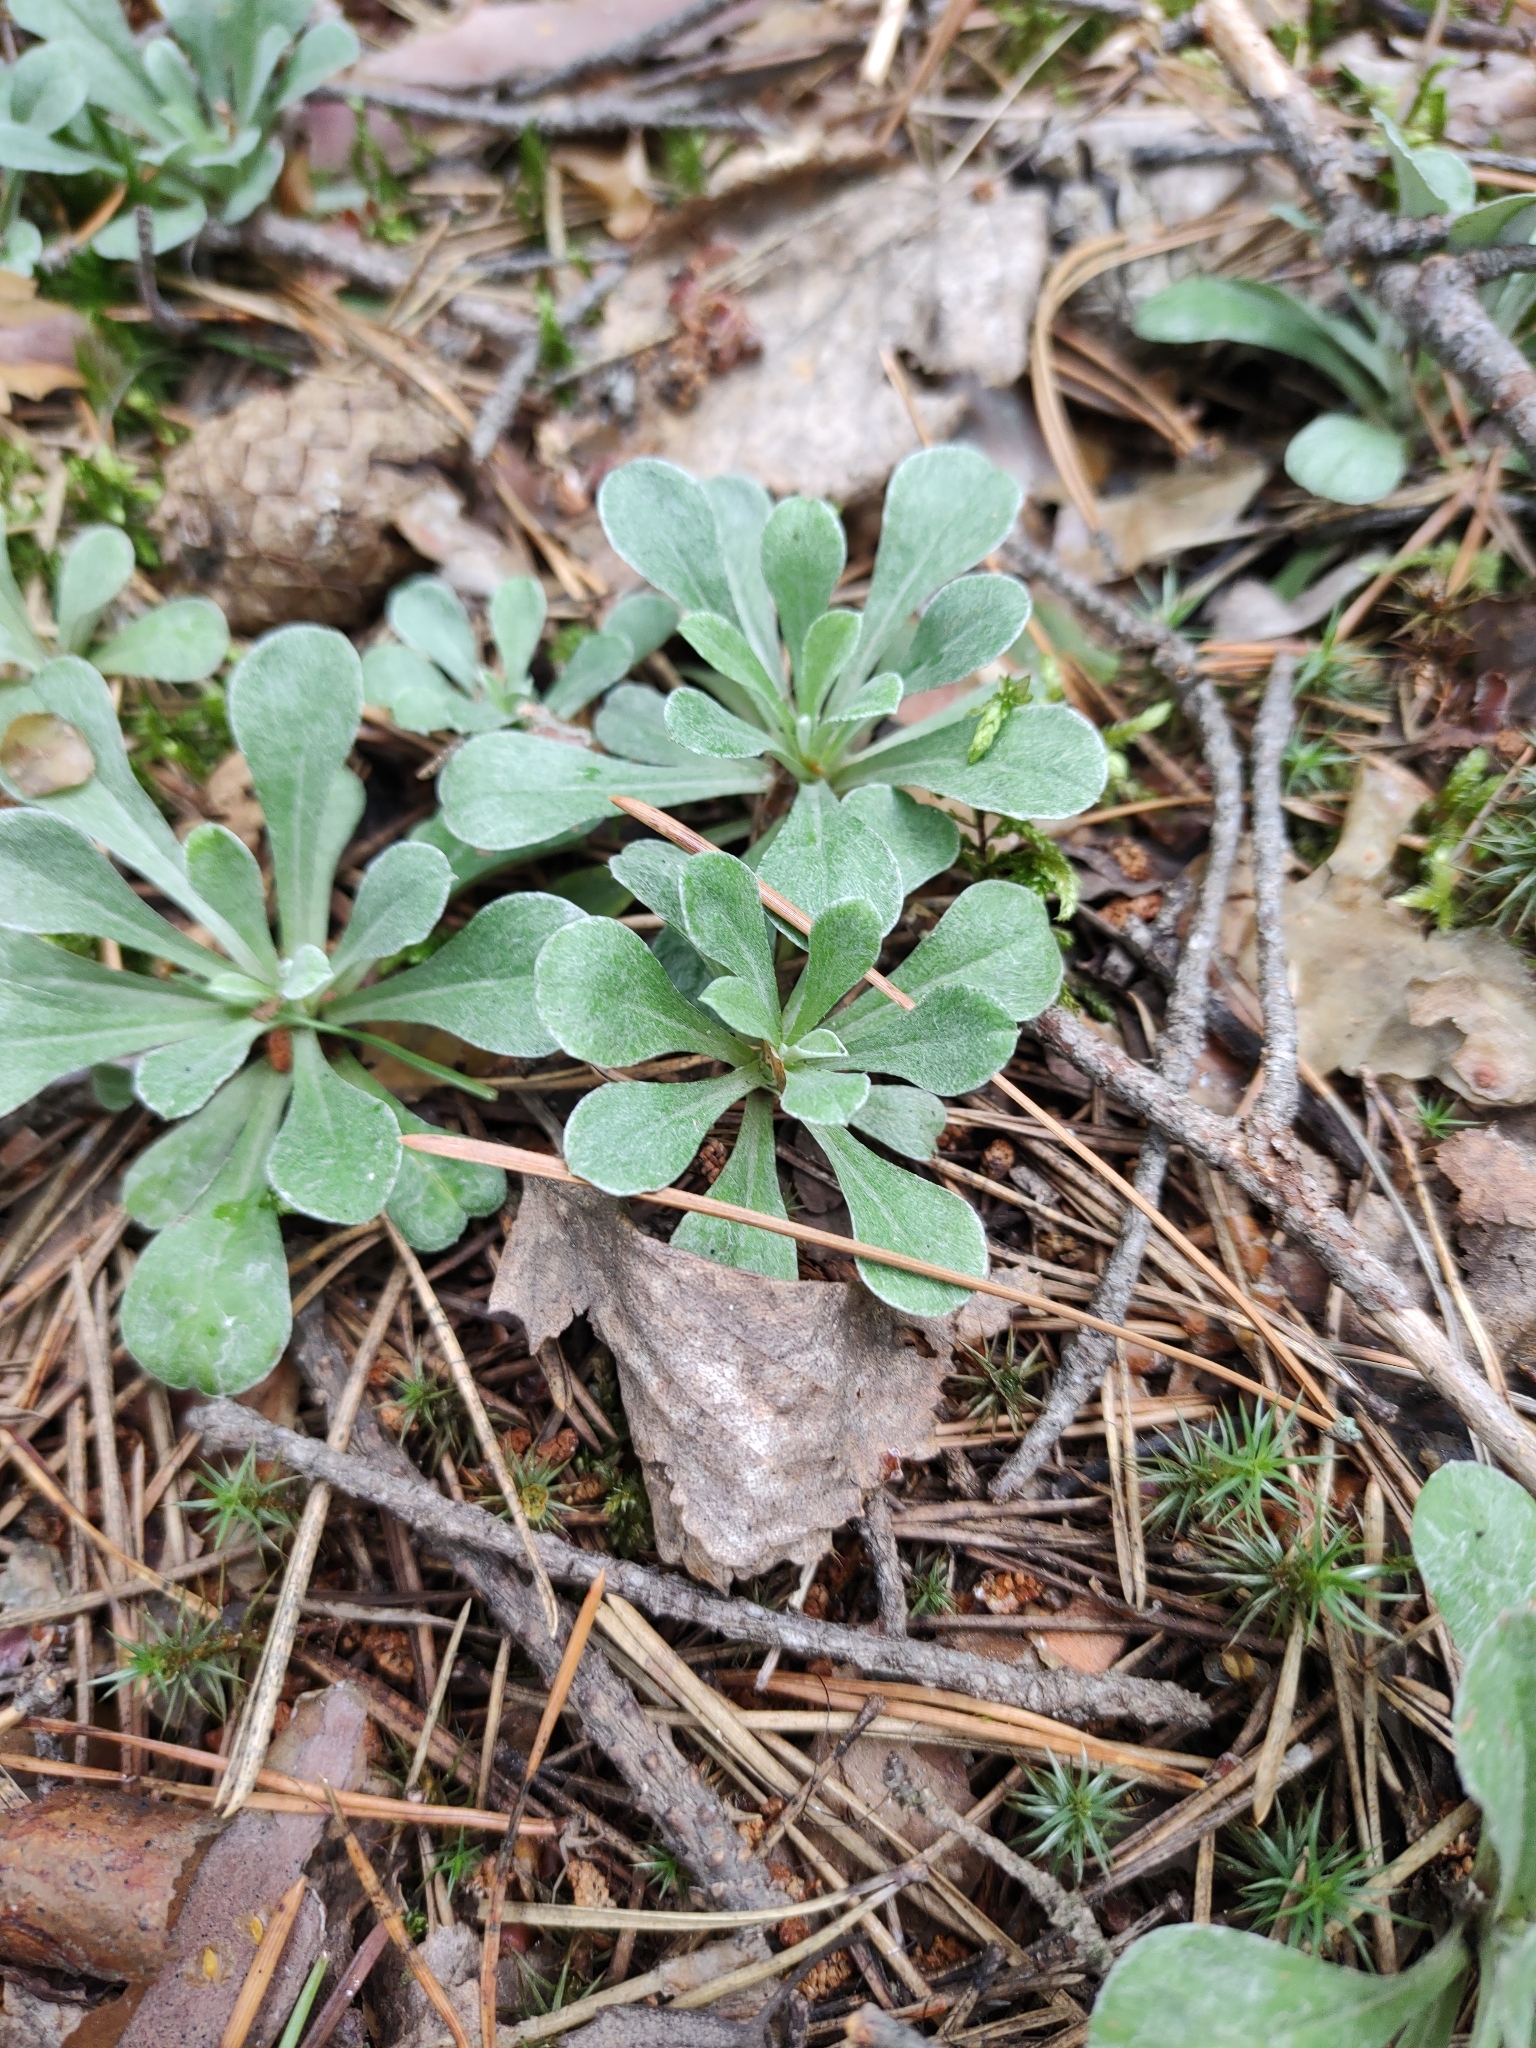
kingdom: Plantae
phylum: Tracheophyta
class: Magnoliopsida
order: Asterales
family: Asteraceae
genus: Antennaria
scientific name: Antennaria dioica
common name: Mountain everlasting
